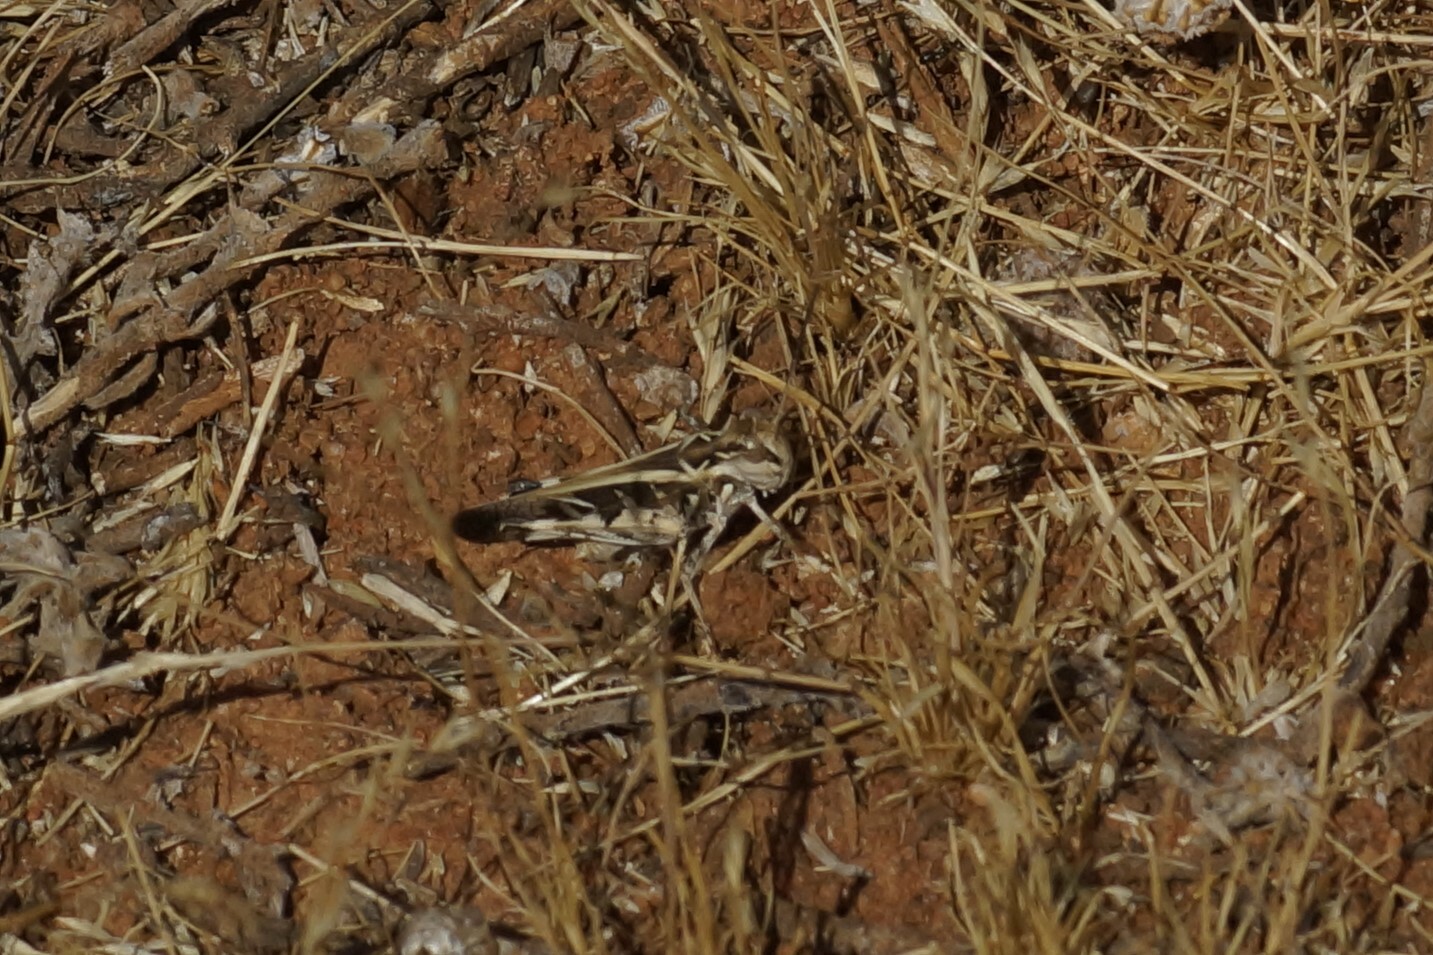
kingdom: Animalia
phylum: Arthropoda
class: Insecta
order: Orthoptera
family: Acrididae
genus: Oedaleus
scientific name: Oedaleus australis
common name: Eastern oedaleus
